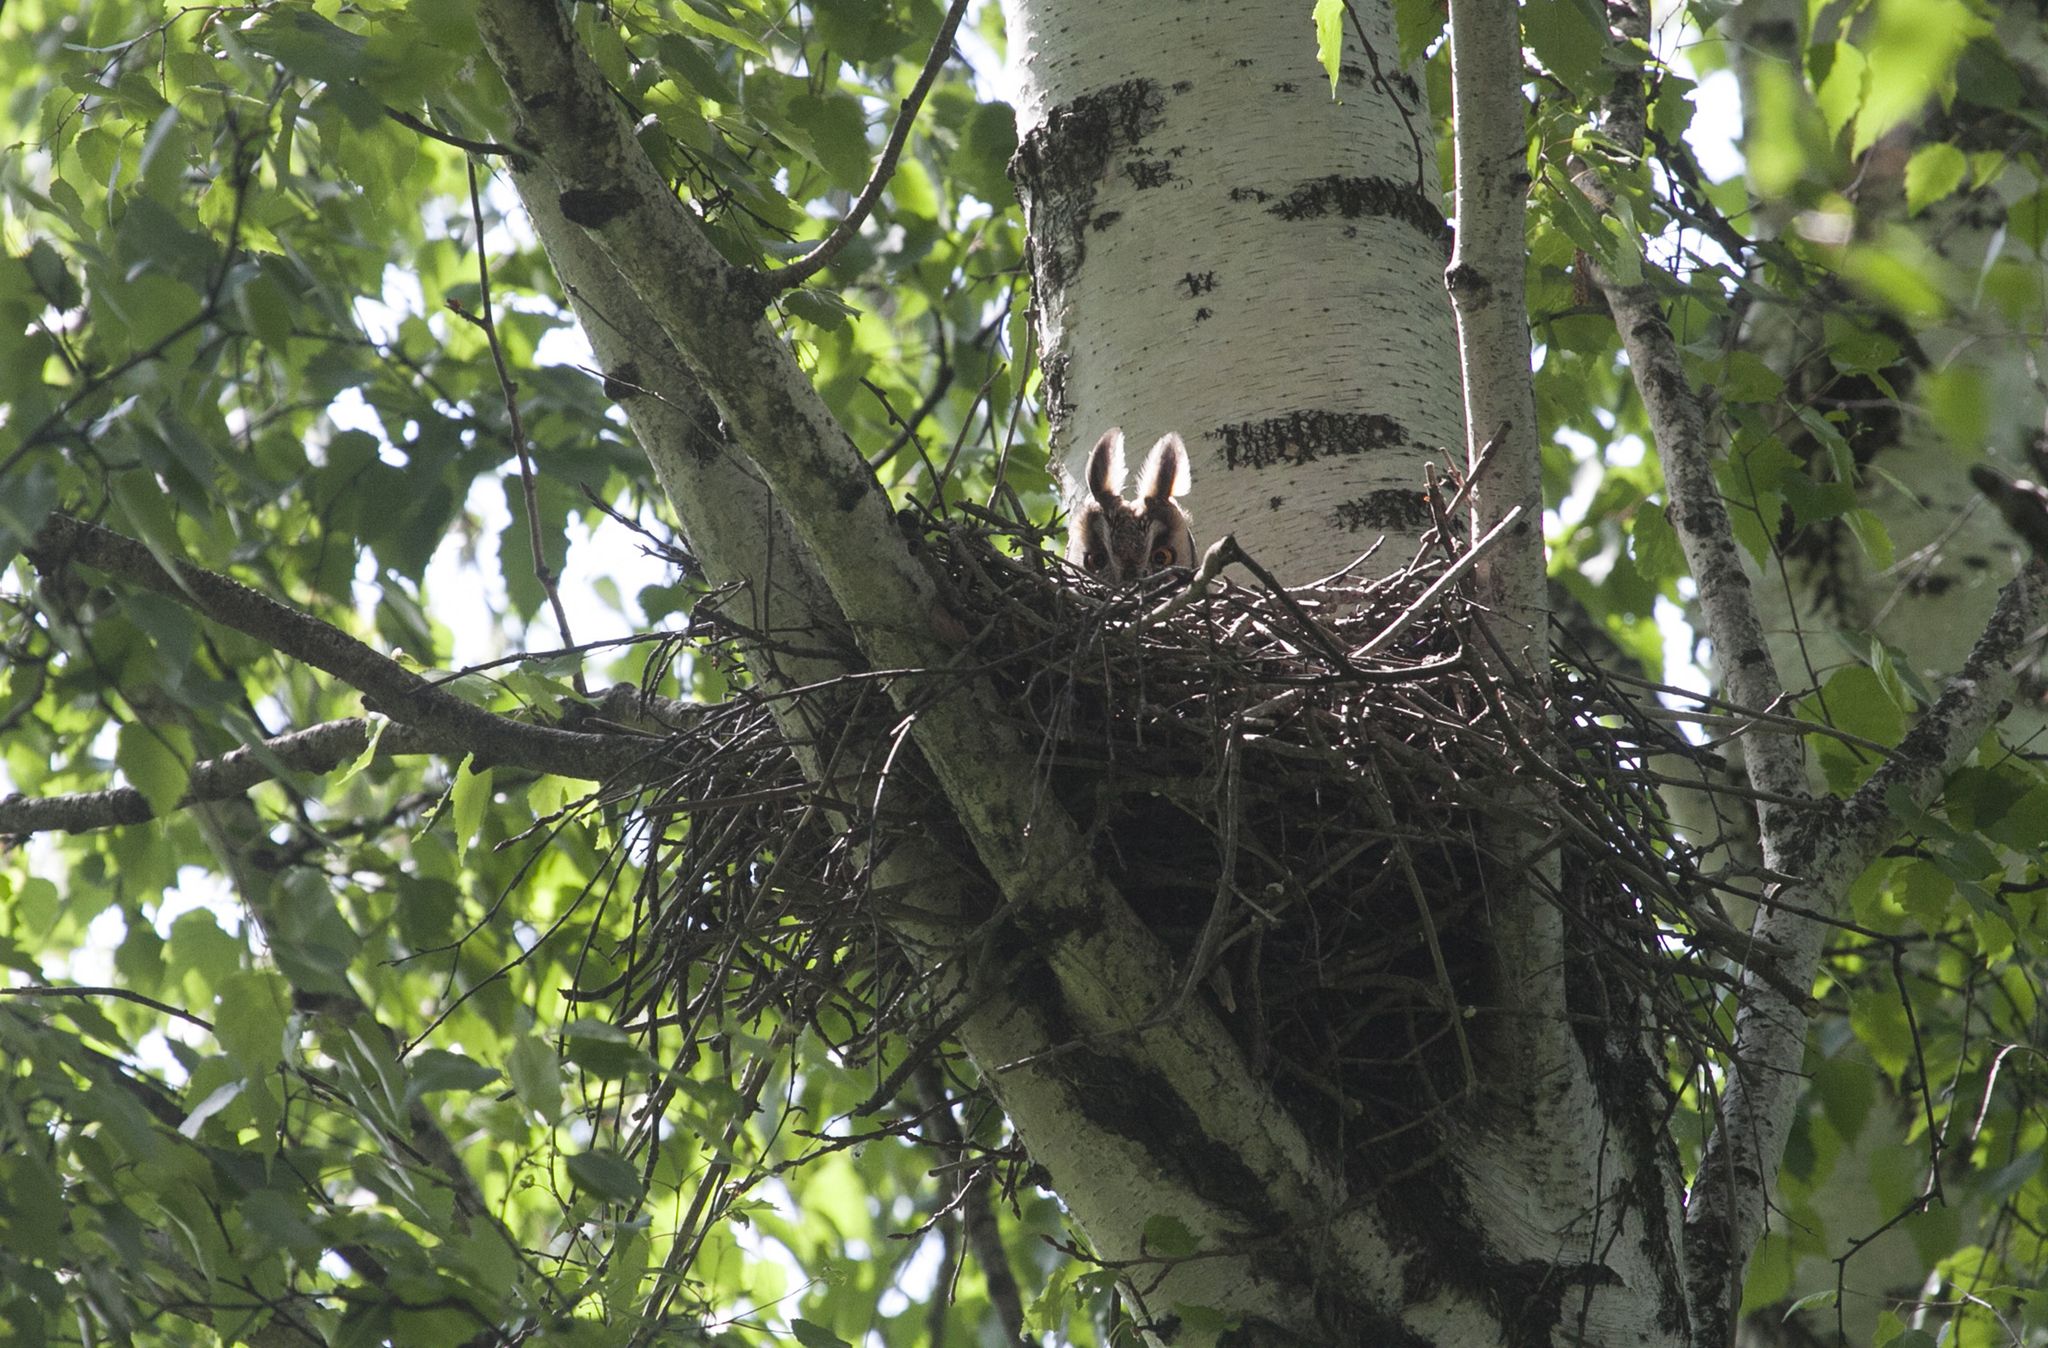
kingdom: Animalia
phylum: Chordata
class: Aves
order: Strigiformes
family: Strigidae
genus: Asio
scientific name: Asio otus
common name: Long-eared owl
